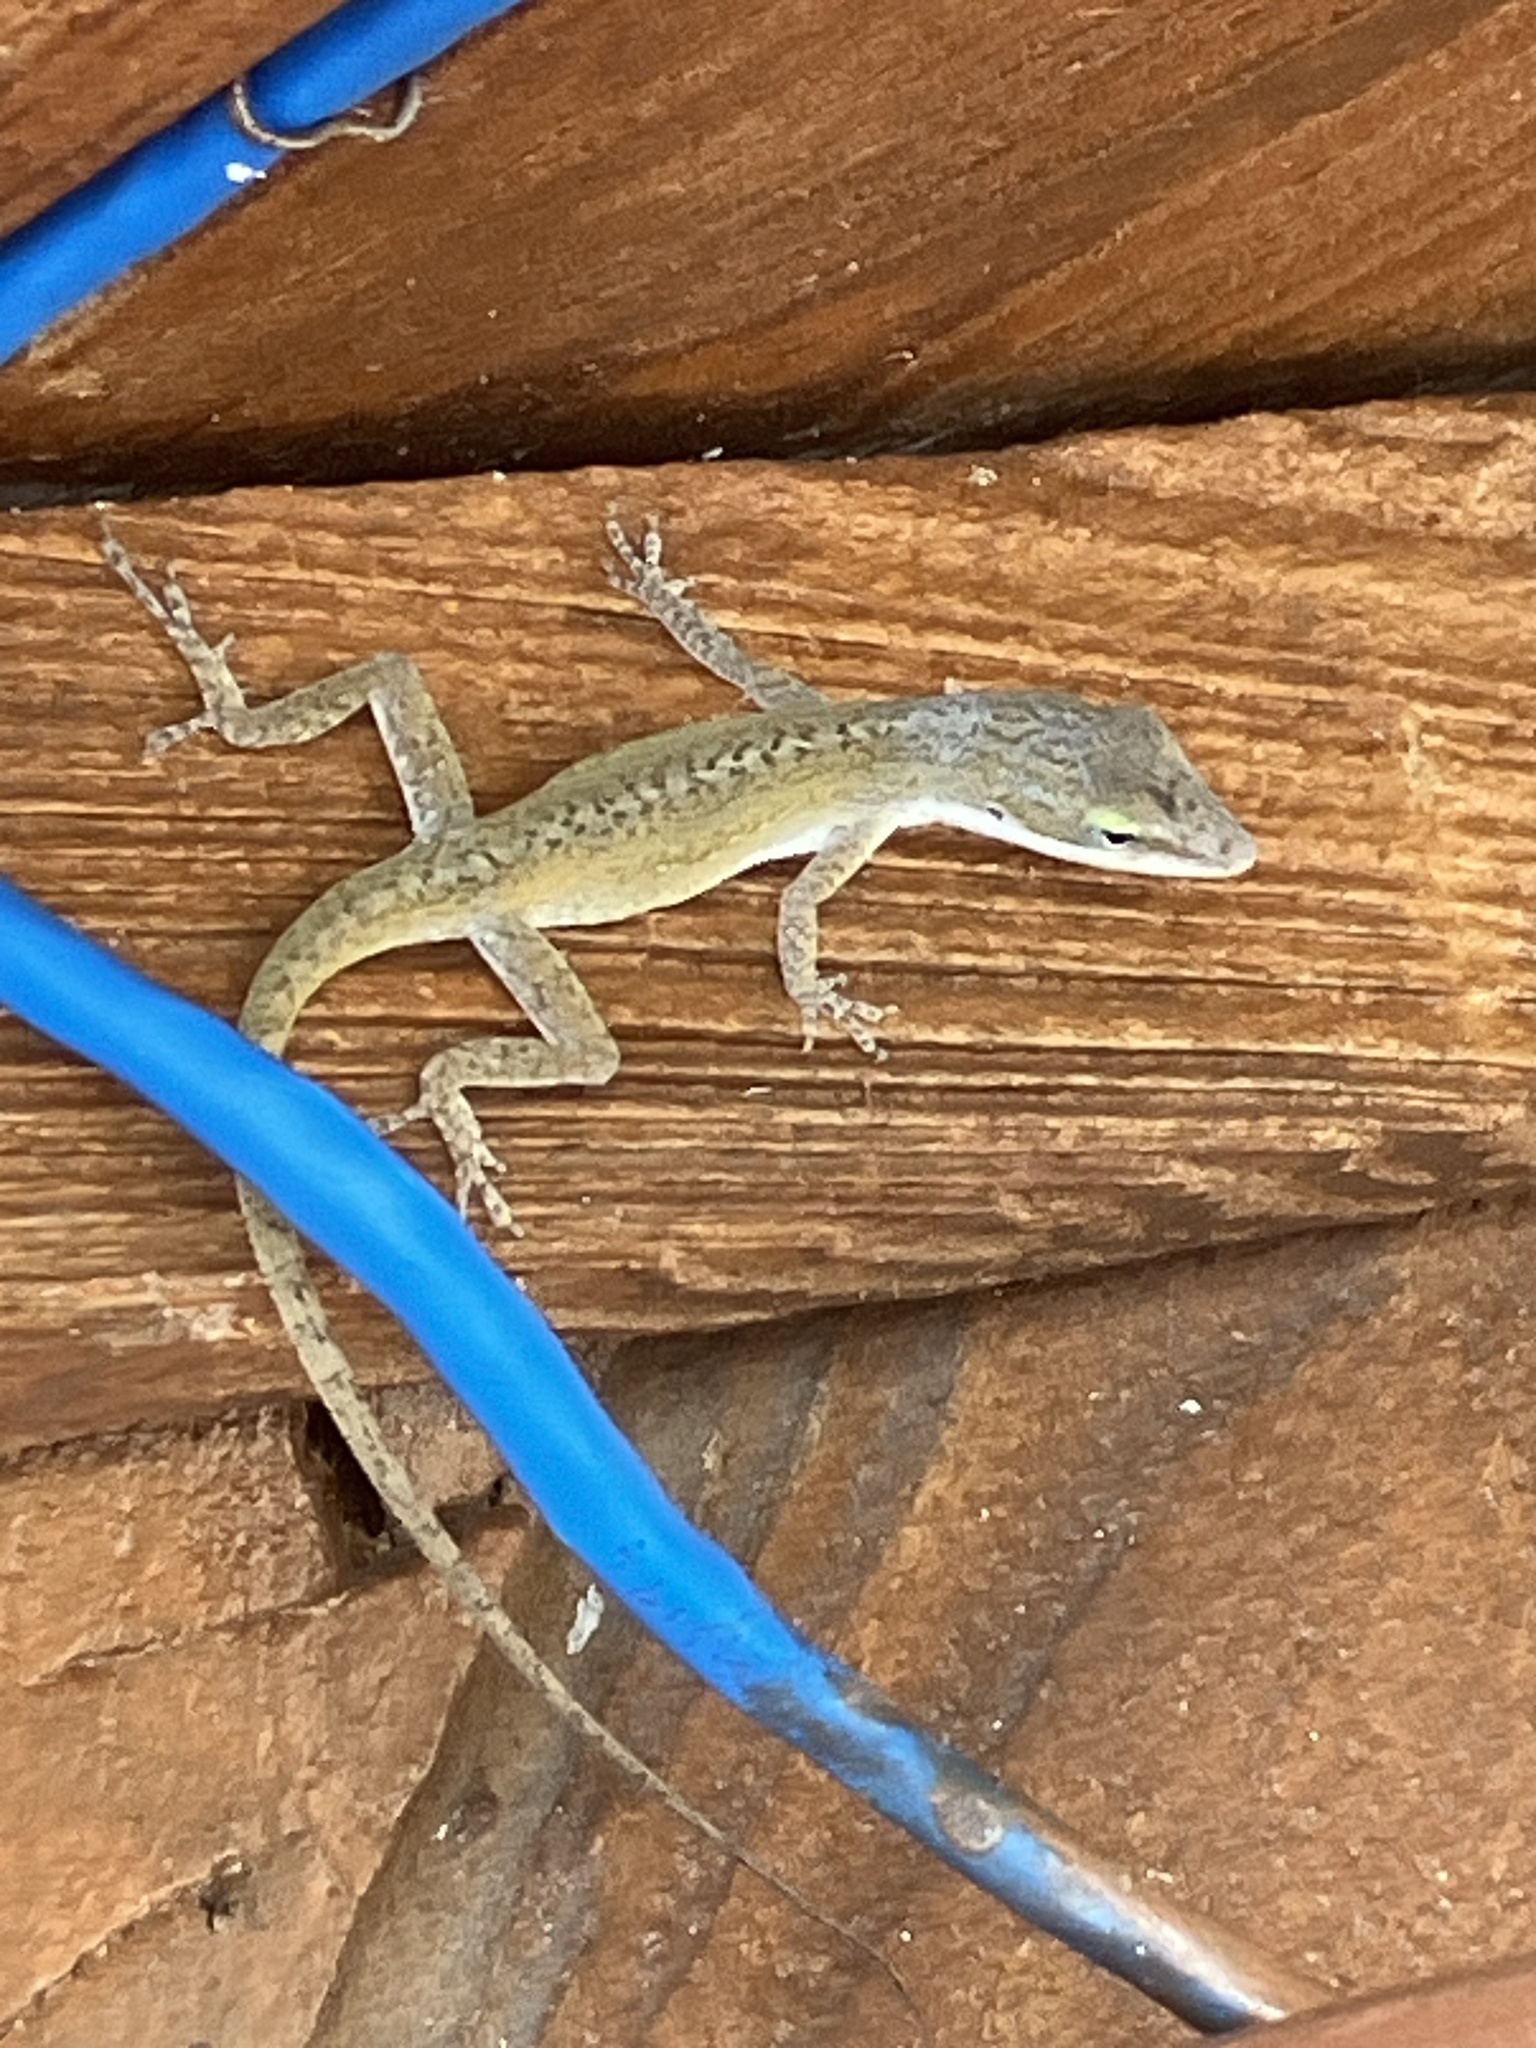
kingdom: Animalia
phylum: Chordata
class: Squamata
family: Dactyloidae
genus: Anolis
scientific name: Anolis carolinensis
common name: Green anole
